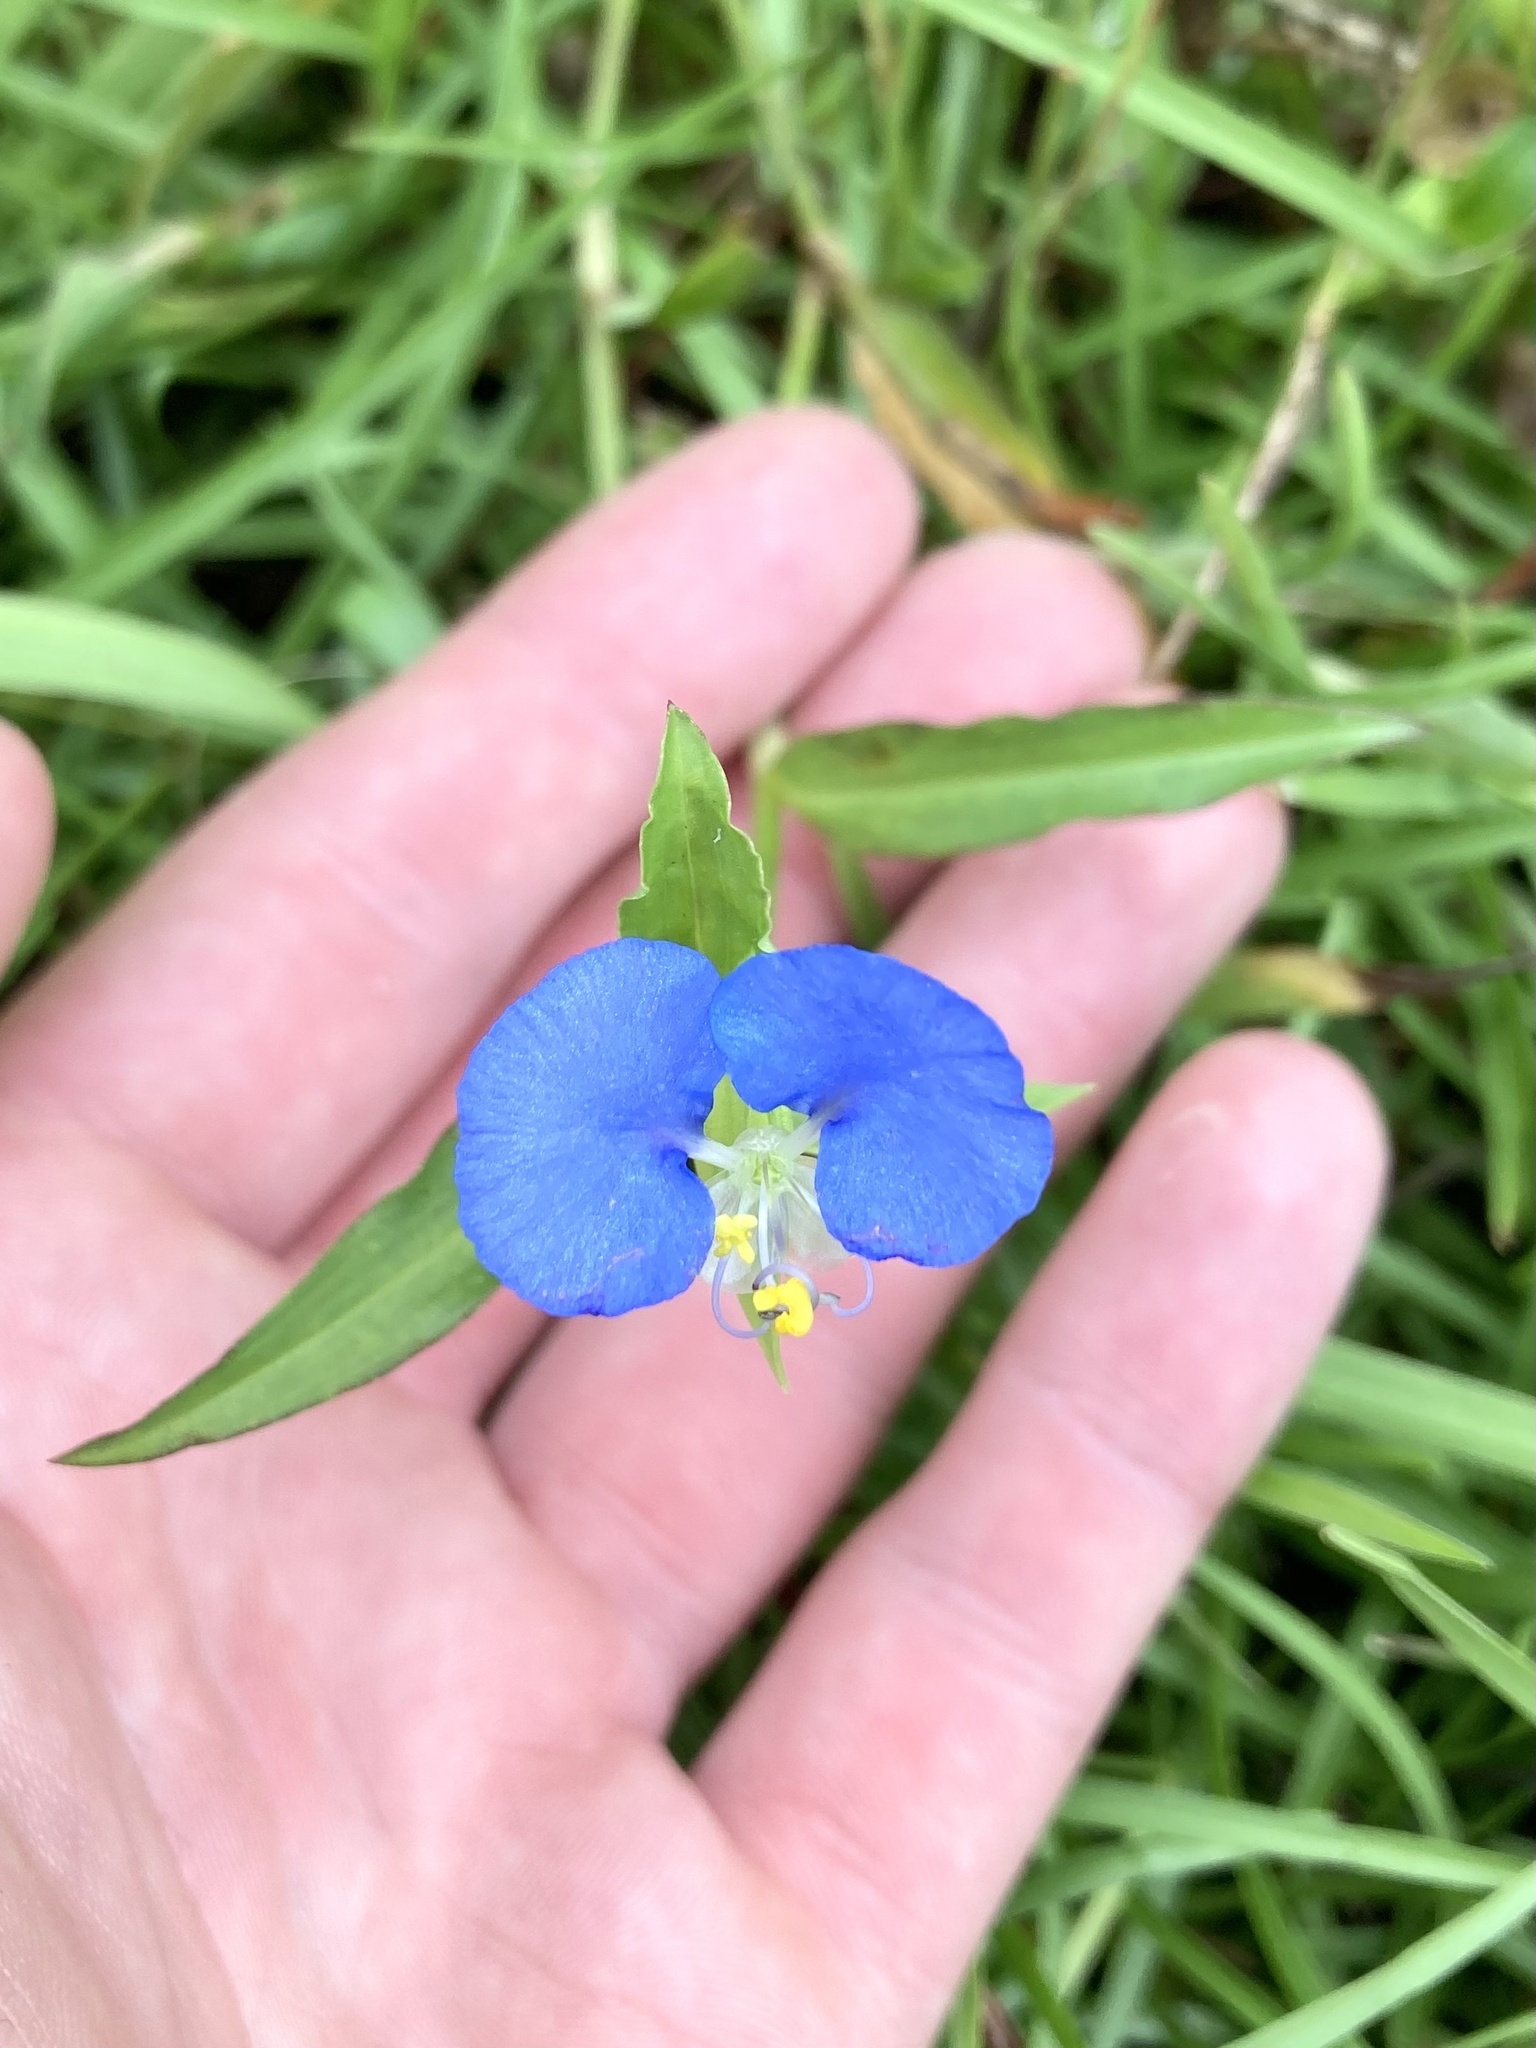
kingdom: Plantae
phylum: Tracheophyta
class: Liliopsida
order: Commelinales
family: Commelinaceae
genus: Commelina
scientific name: Commelina erecta
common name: Blousel blommetjie
